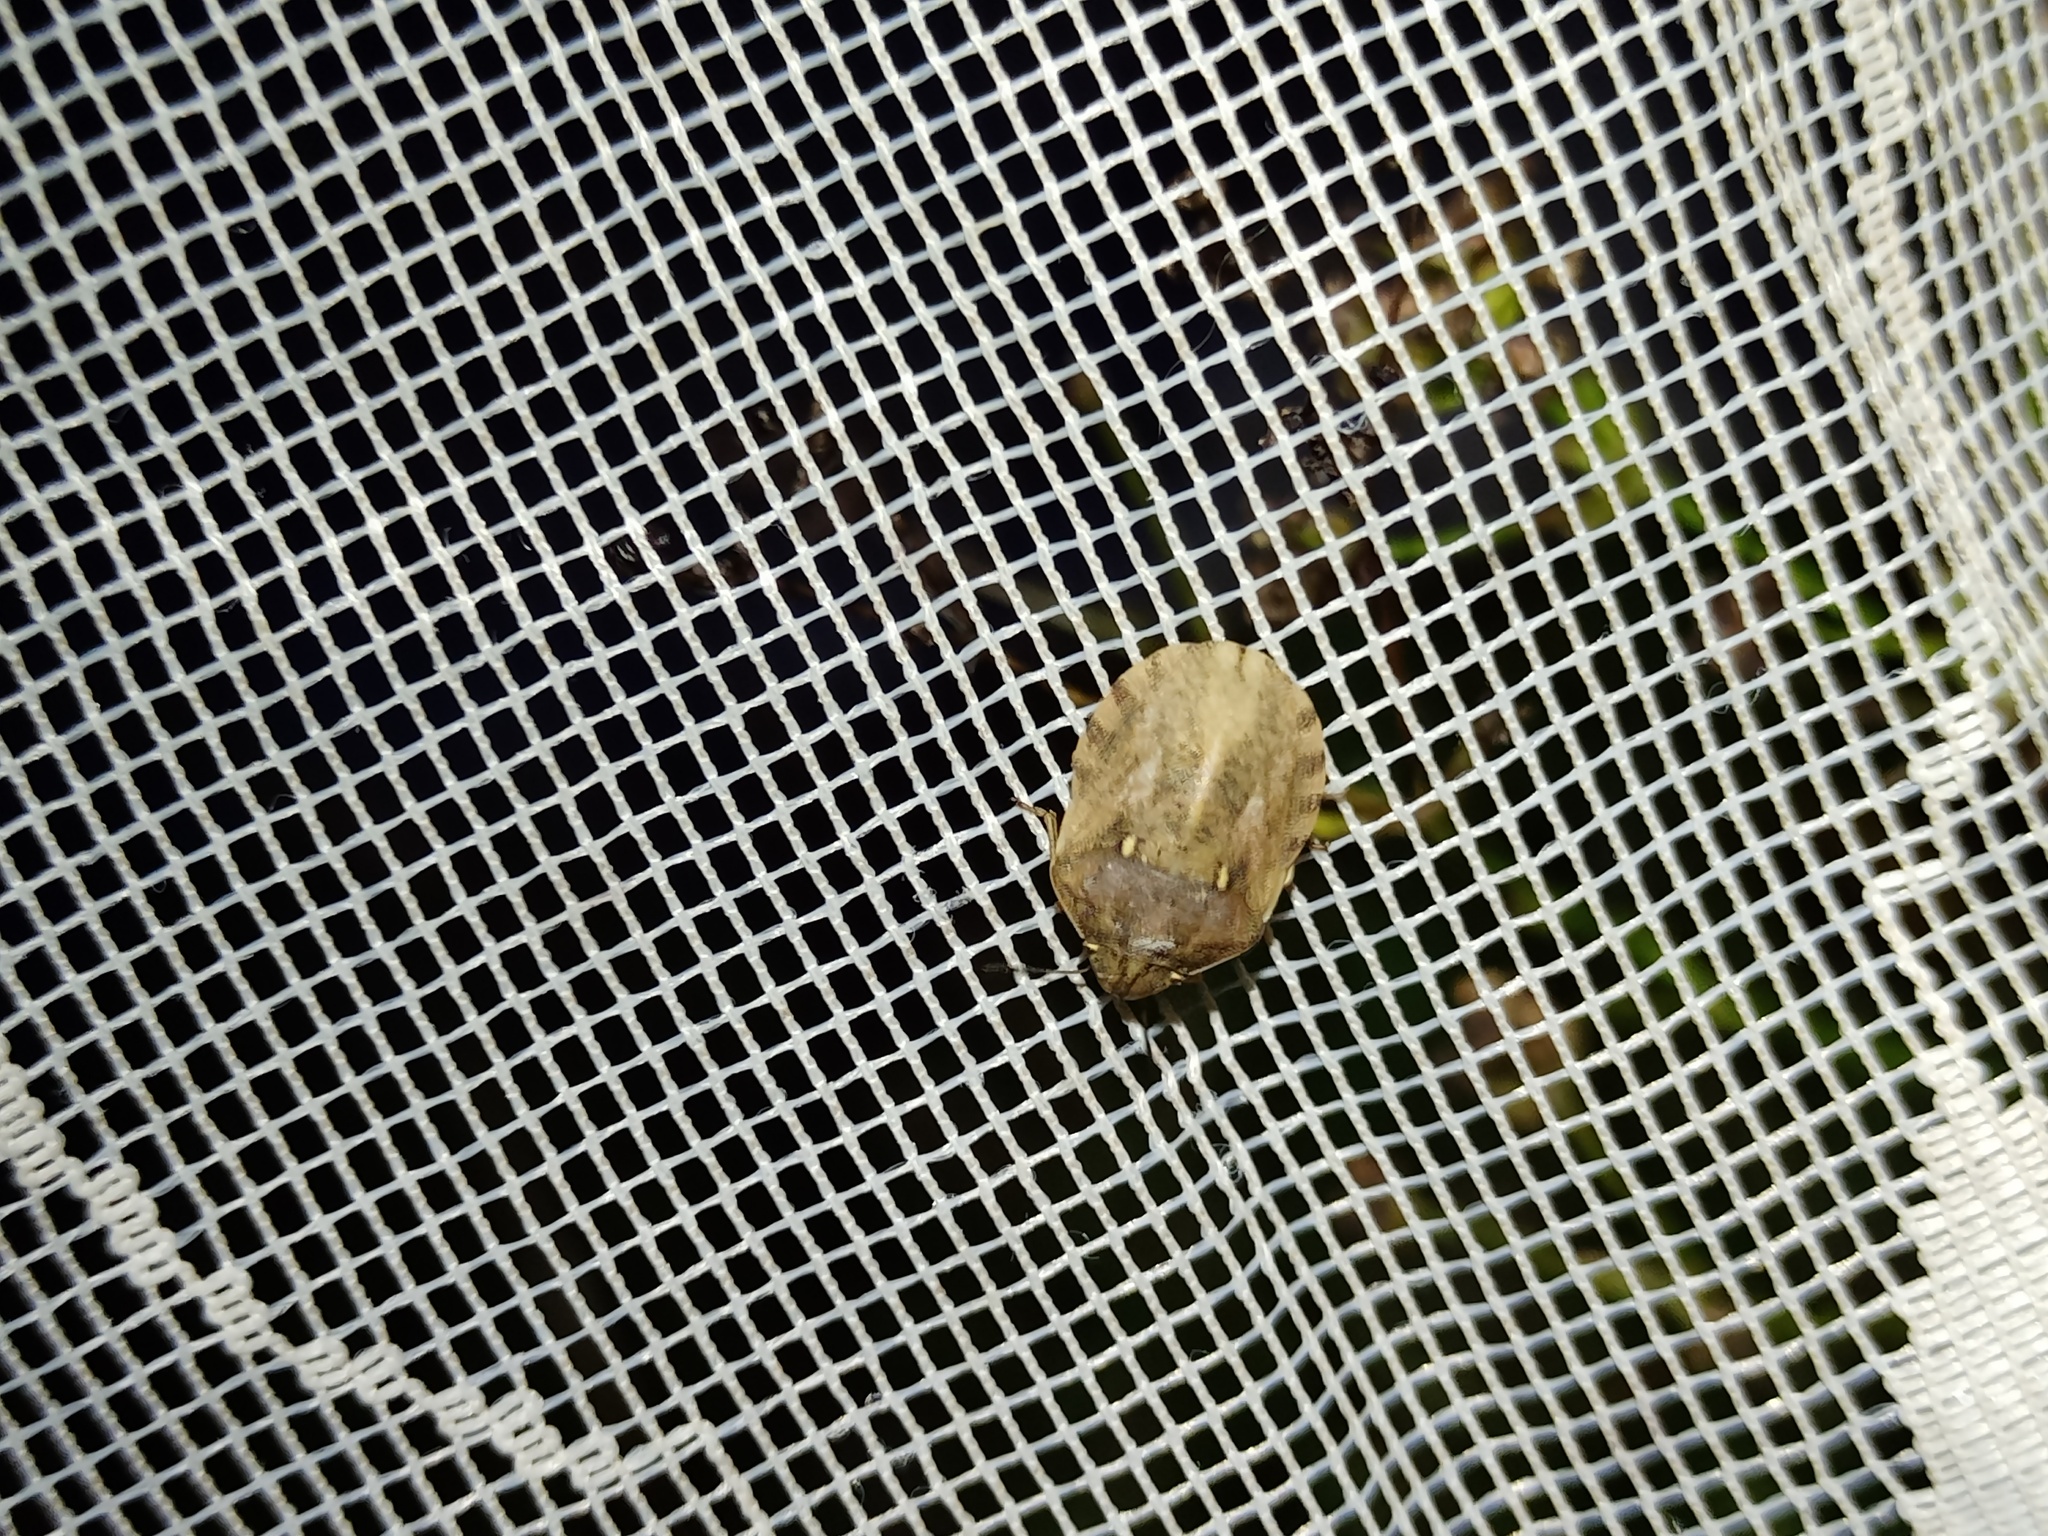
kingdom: Animalia
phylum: Arthropoda
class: Insecta
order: Hemiptera
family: Scutelleridae
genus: Eurygaster
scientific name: Eurygaster maura
